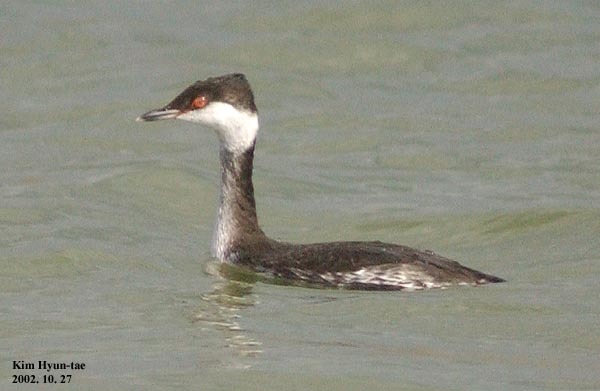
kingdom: Animalia
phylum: Chordata
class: Aves
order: Podicipediformes
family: Podicipedidae
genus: Podiceps
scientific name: Podiceps auritus
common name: Horned grebe
